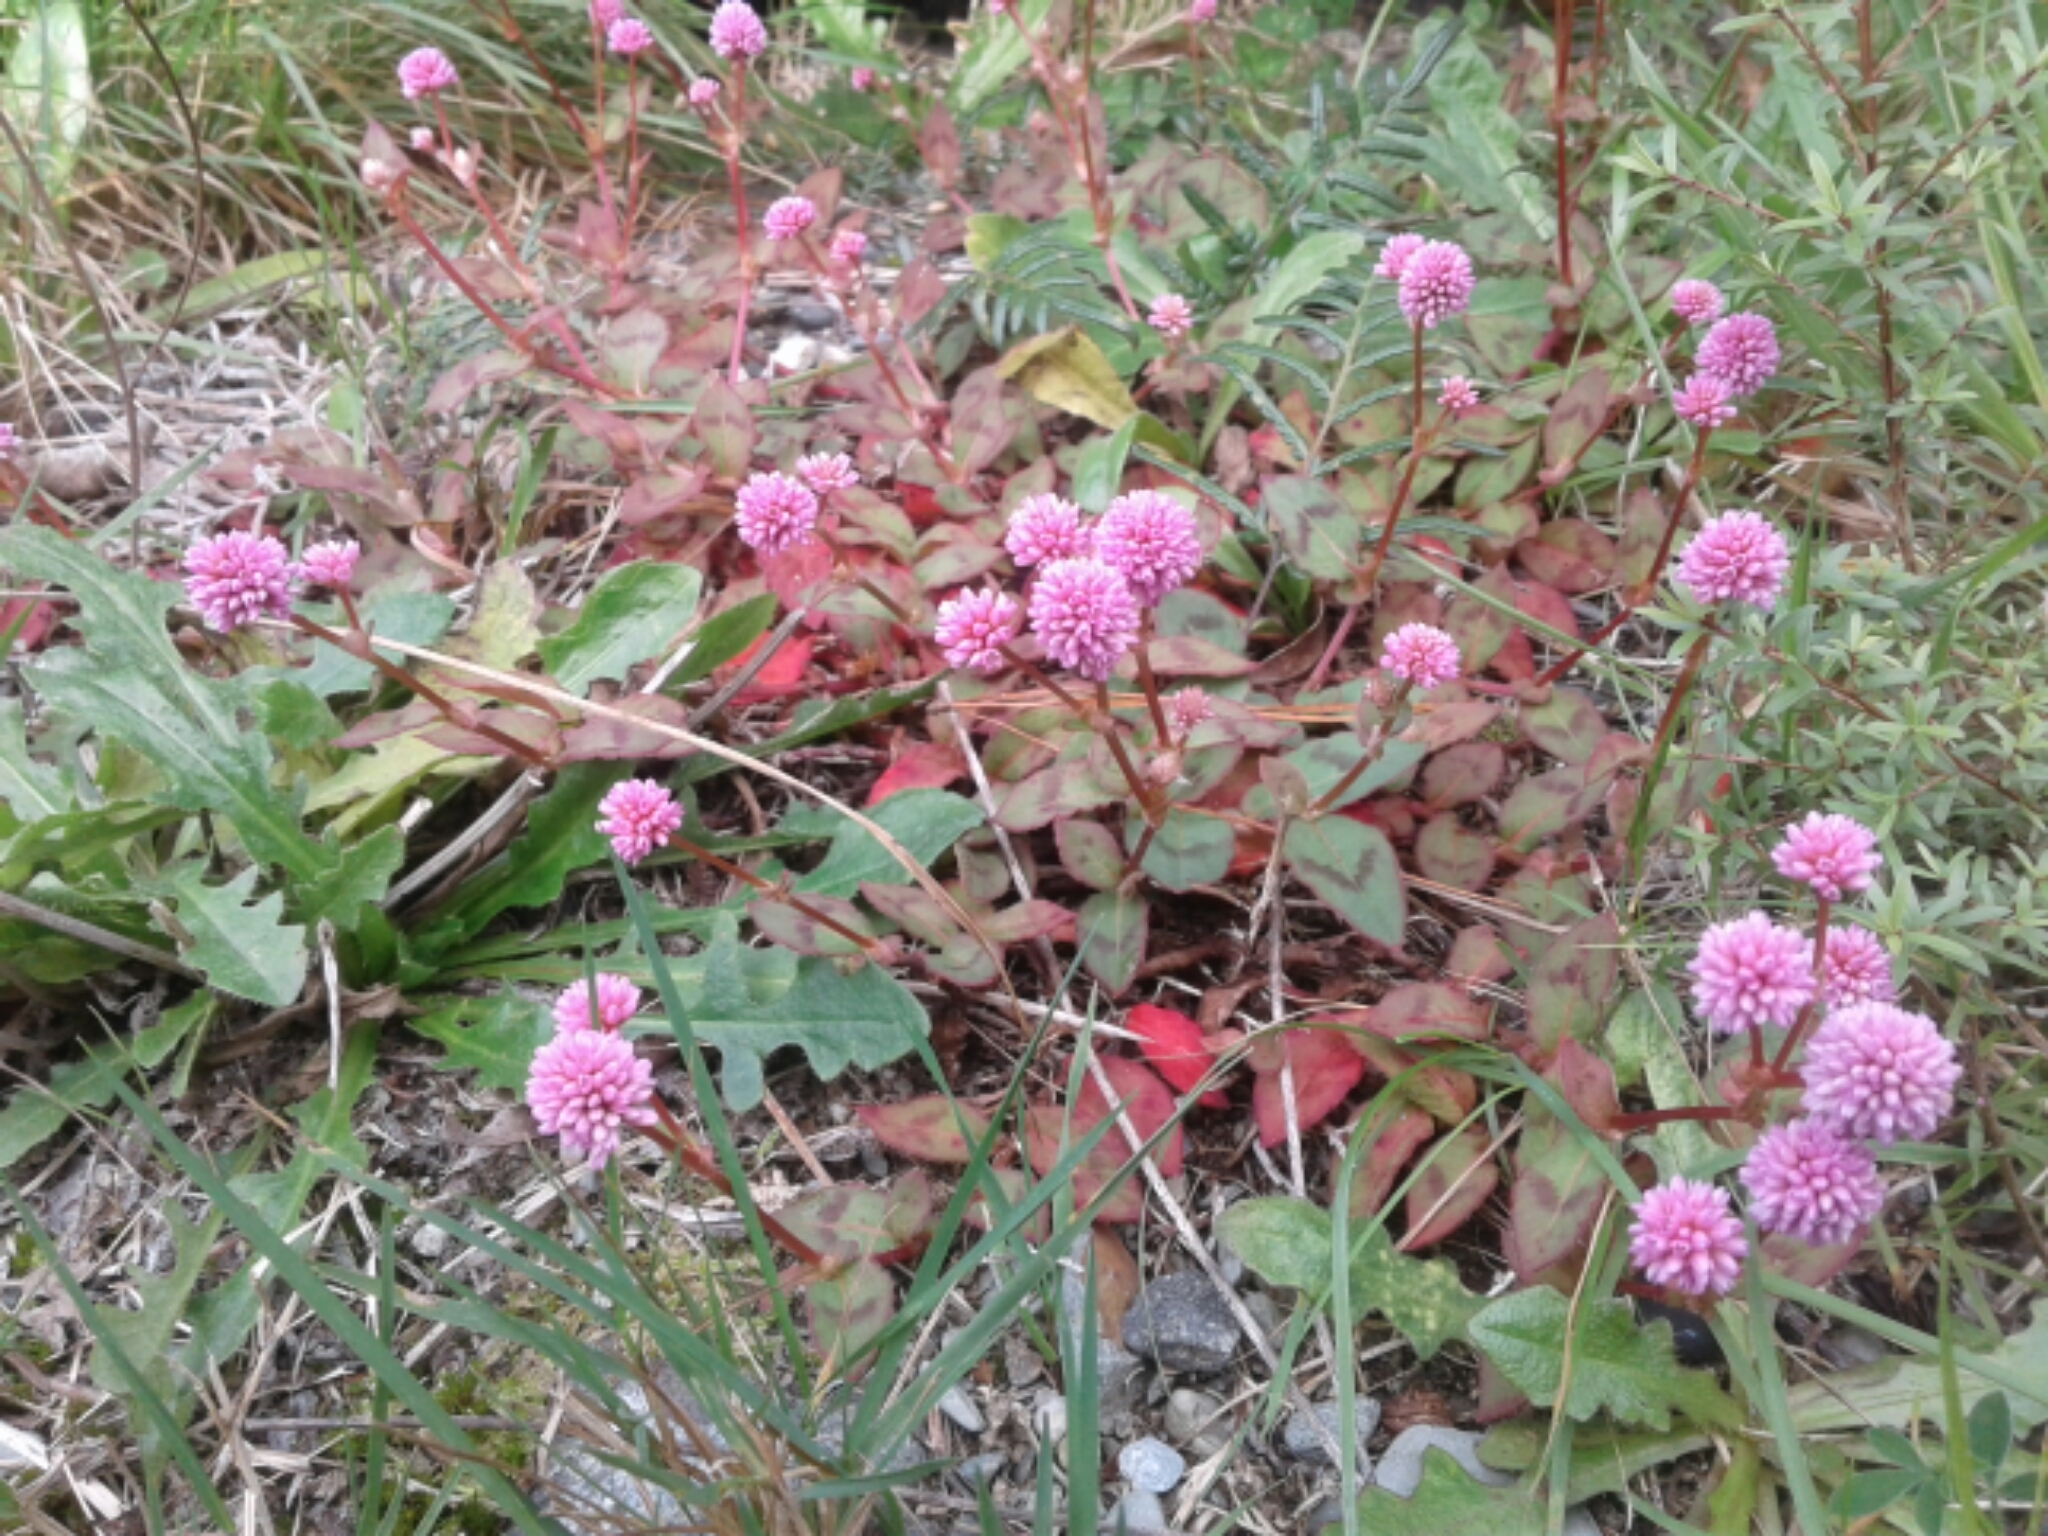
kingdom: Plantae
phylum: Tracheophyta
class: Magnoliopsida
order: Caryophyllales
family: Polygonaceae
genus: Persicaria
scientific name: Persicaria capitata
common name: Pinkhead smartweed
